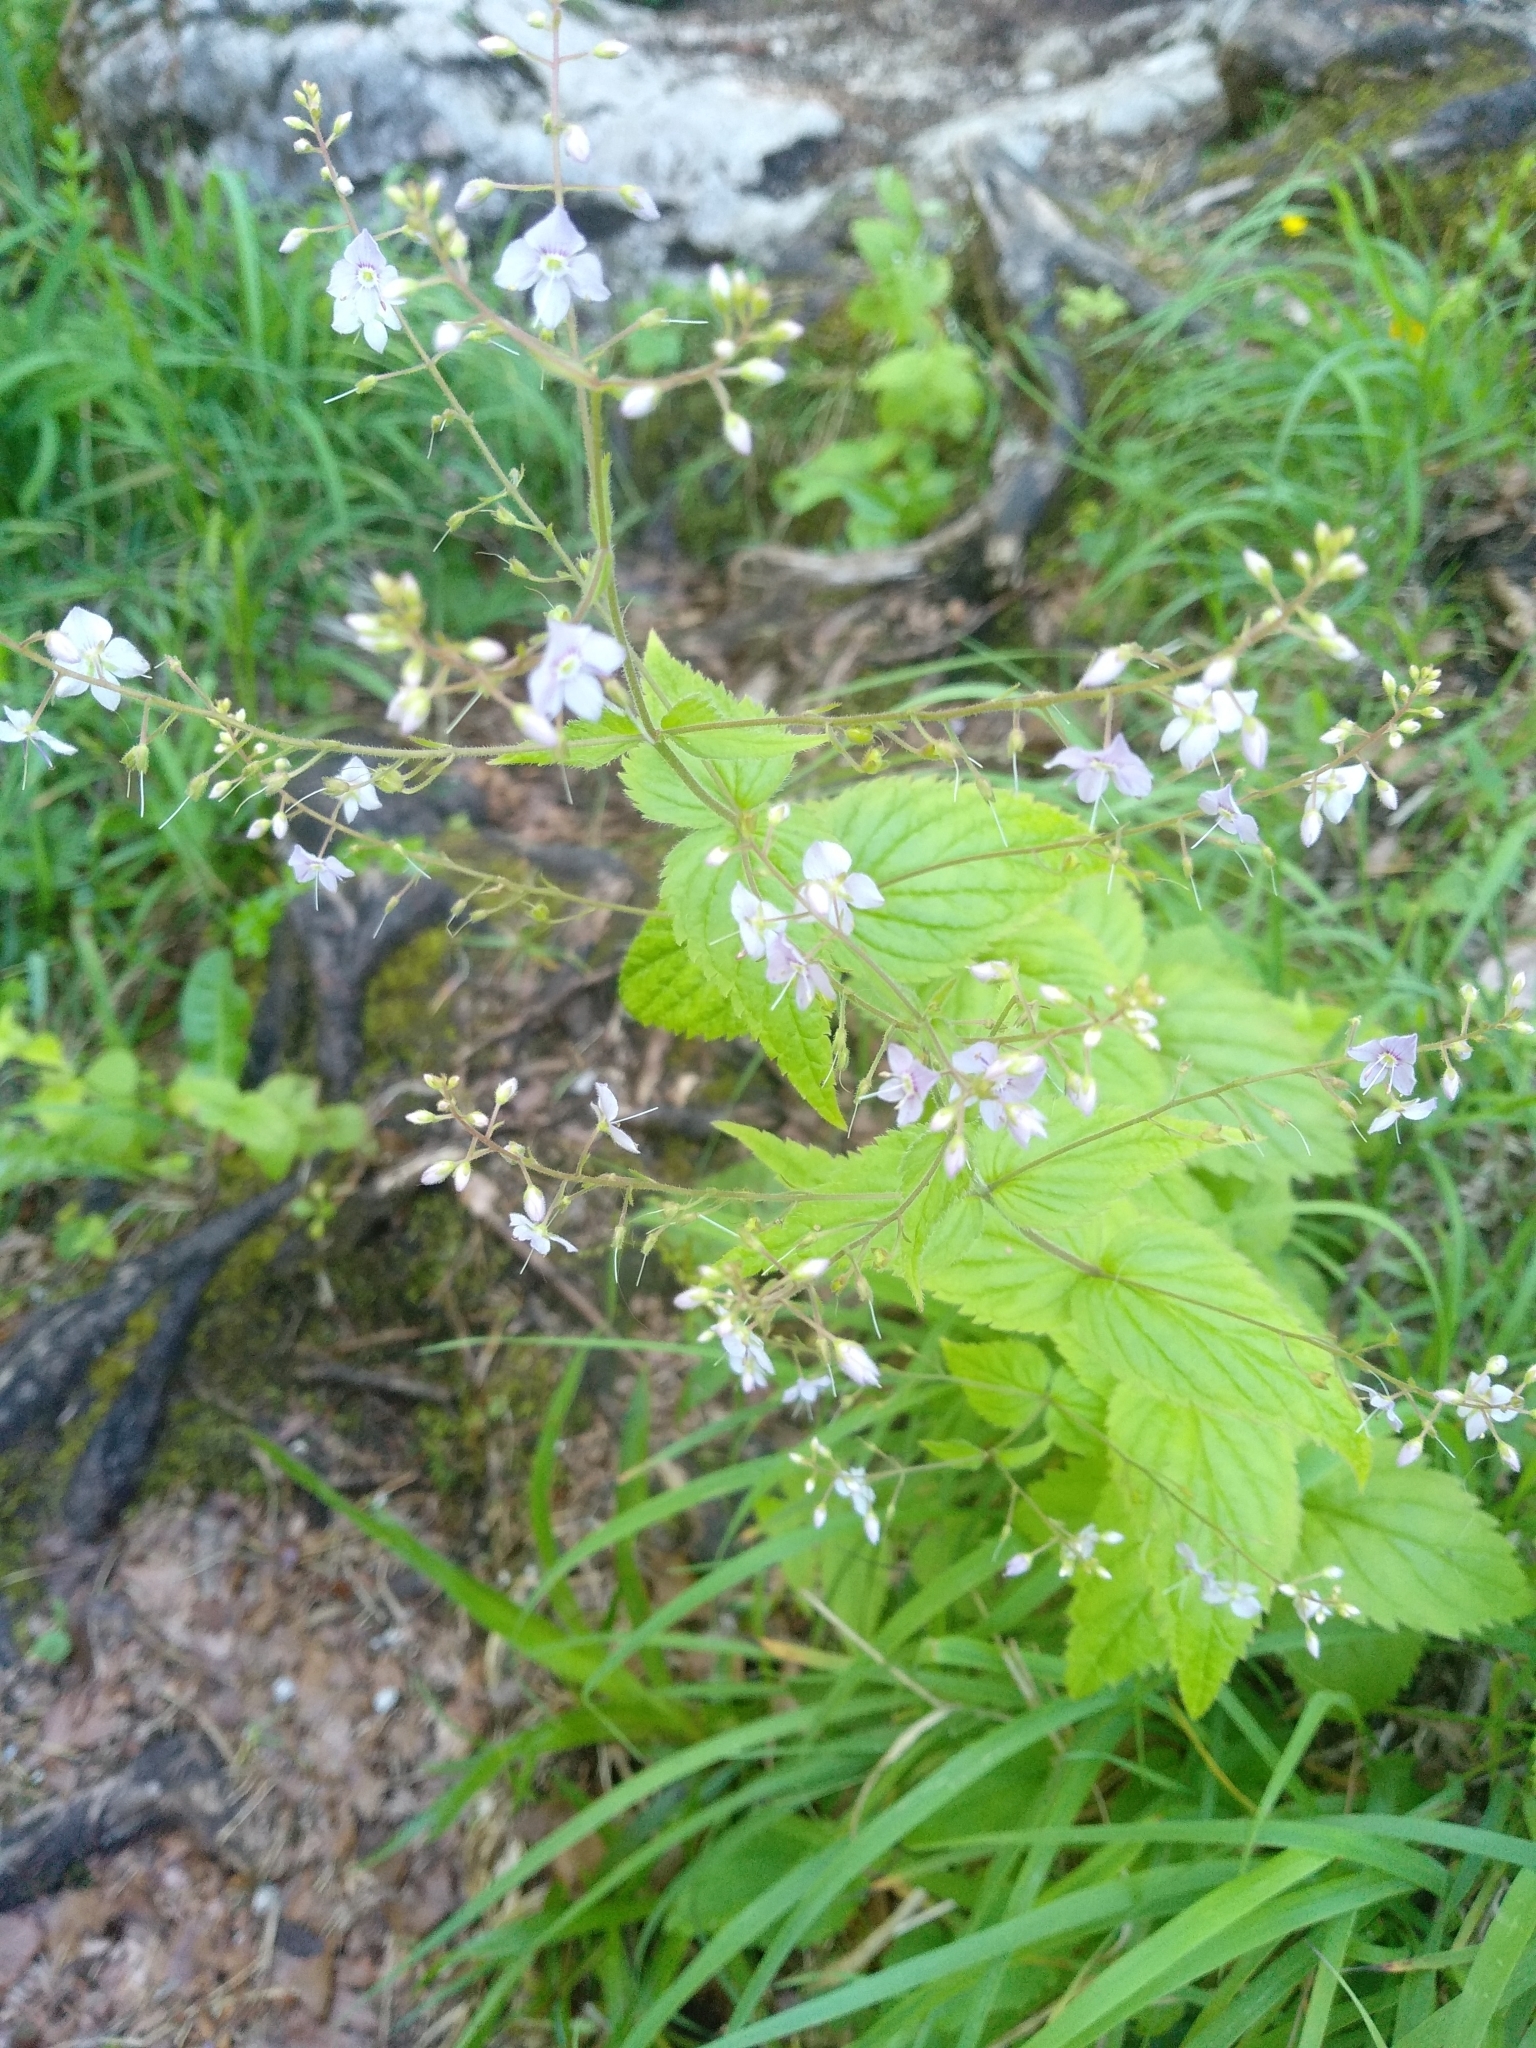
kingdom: Plantae
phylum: Tracheophyta
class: Magnoliopsida
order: Lamiales
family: Plantaginaceae
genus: Veronica
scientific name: Veronica anagallis-aquatica
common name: Water speedwell
